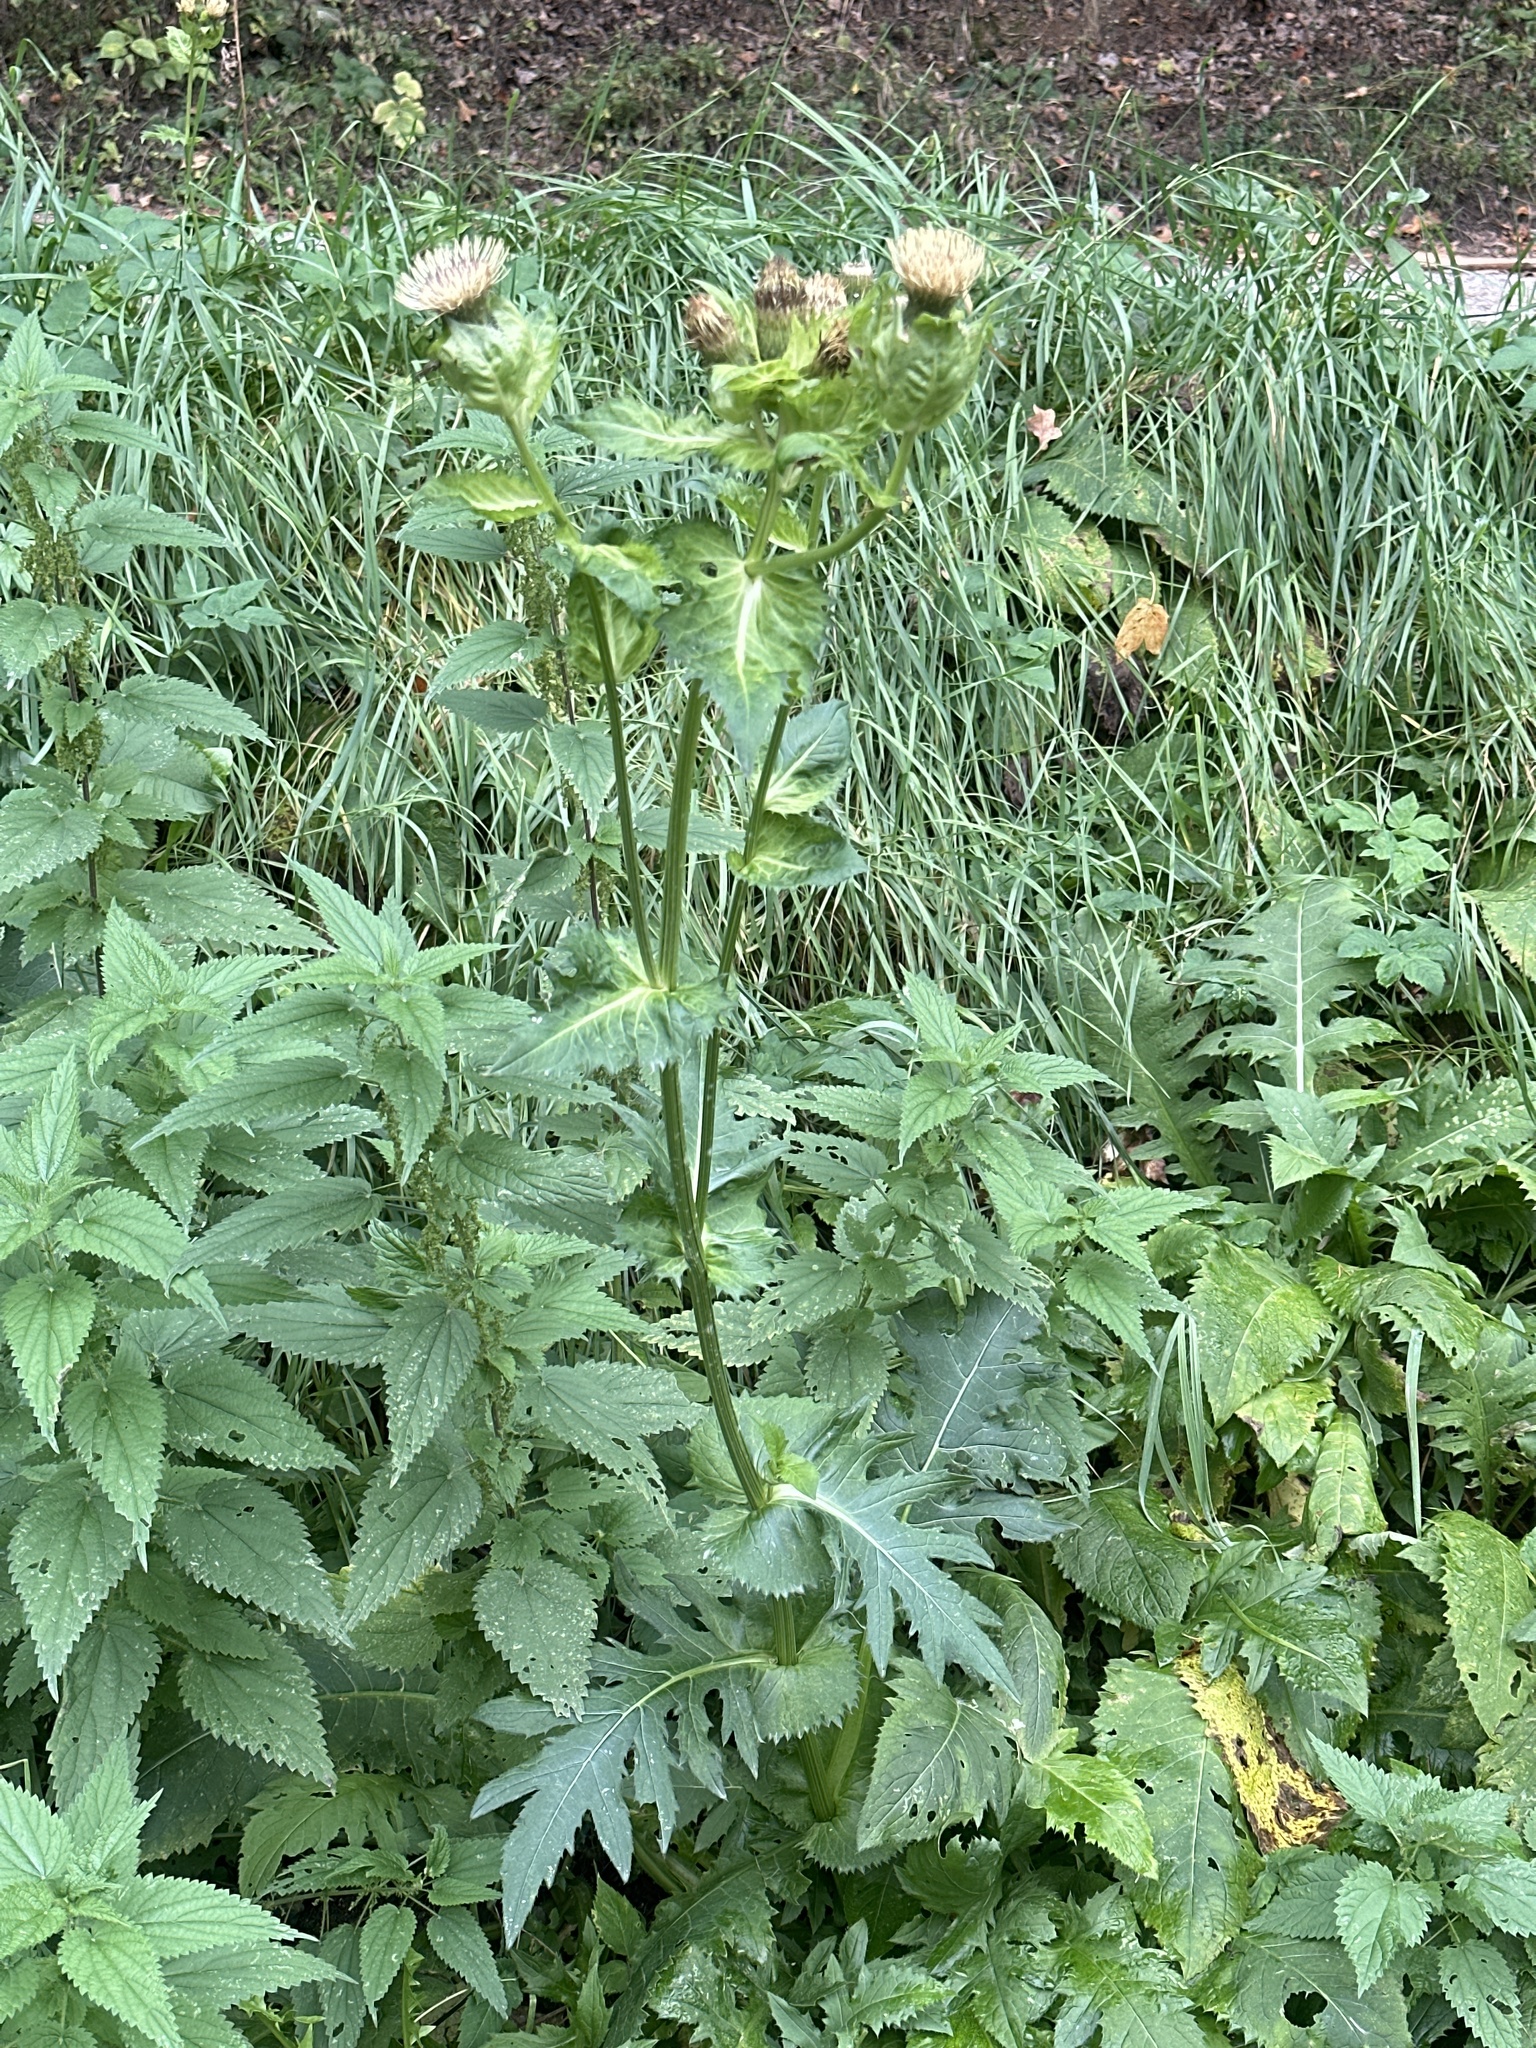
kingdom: Plantae
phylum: Tracheophyta
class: Magnoliopsida
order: Asterales
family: Asteraceae
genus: Cirsium
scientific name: Cirsium oleraceum
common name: Cabbage thistle
